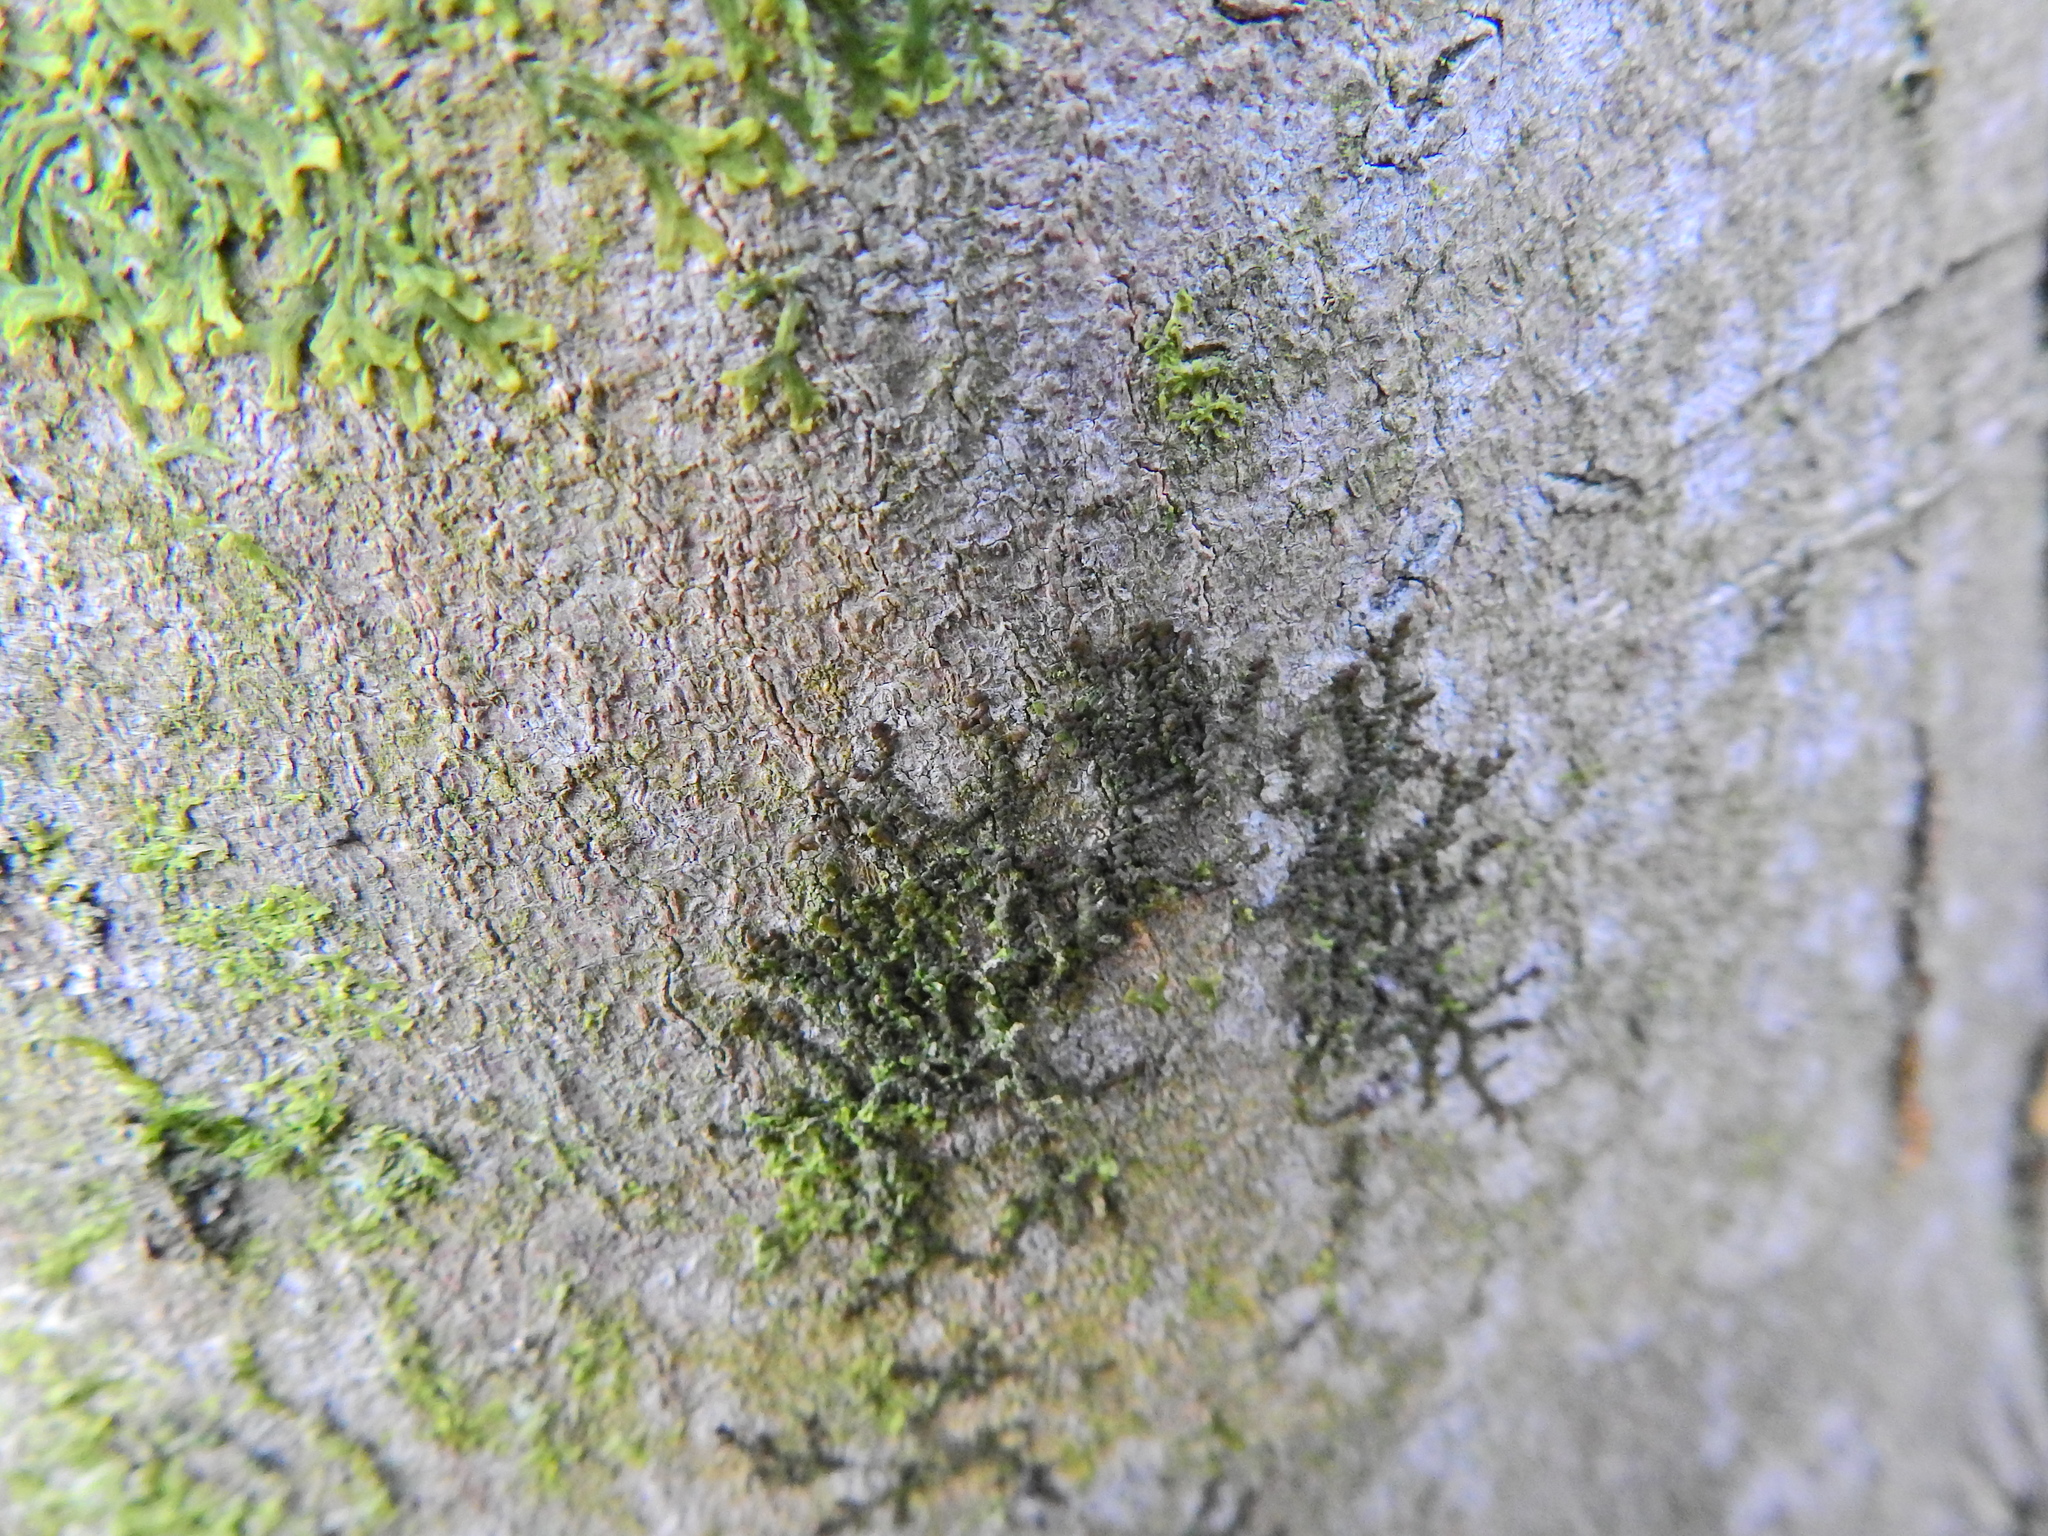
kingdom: Plantae
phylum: Marchantiophyta
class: Jungermanniopsida
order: Porellales
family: Frullaniaceae
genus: Frullania
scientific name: Frullania dilatata
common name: Dilated scalewort
